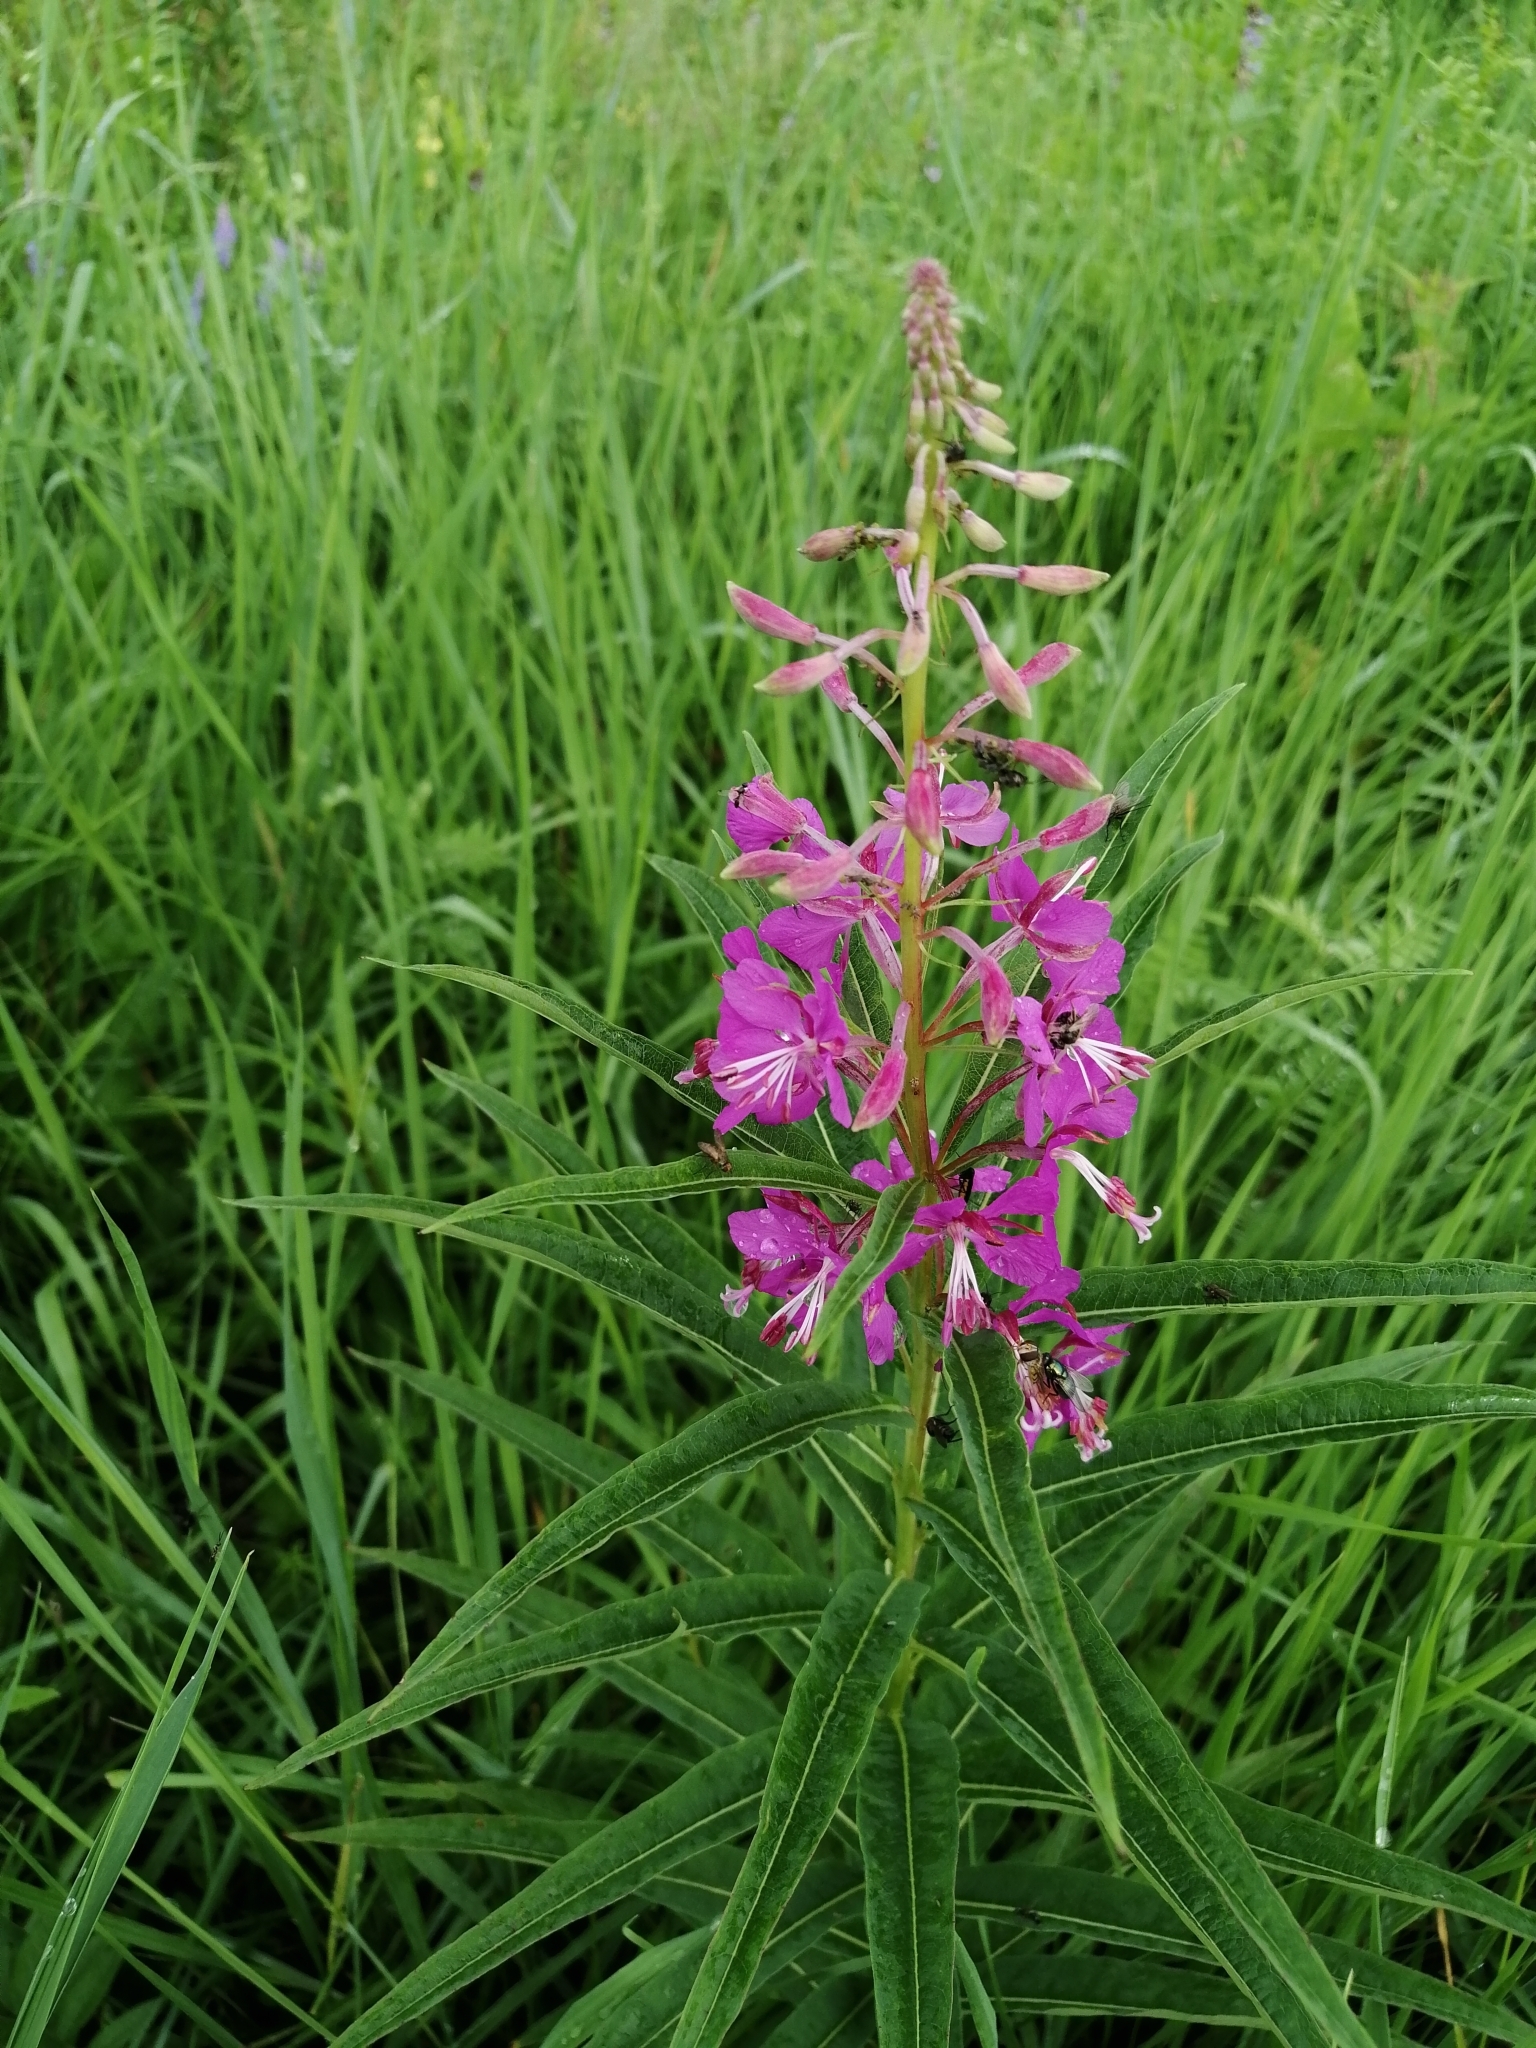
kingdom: Plantae
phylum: Tracheophyta
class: Magnoliopsida
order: Myrtales
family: Onagraceae
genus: Chamaenerion
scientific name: Chamaenerion angustifolium
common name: Fireweed
